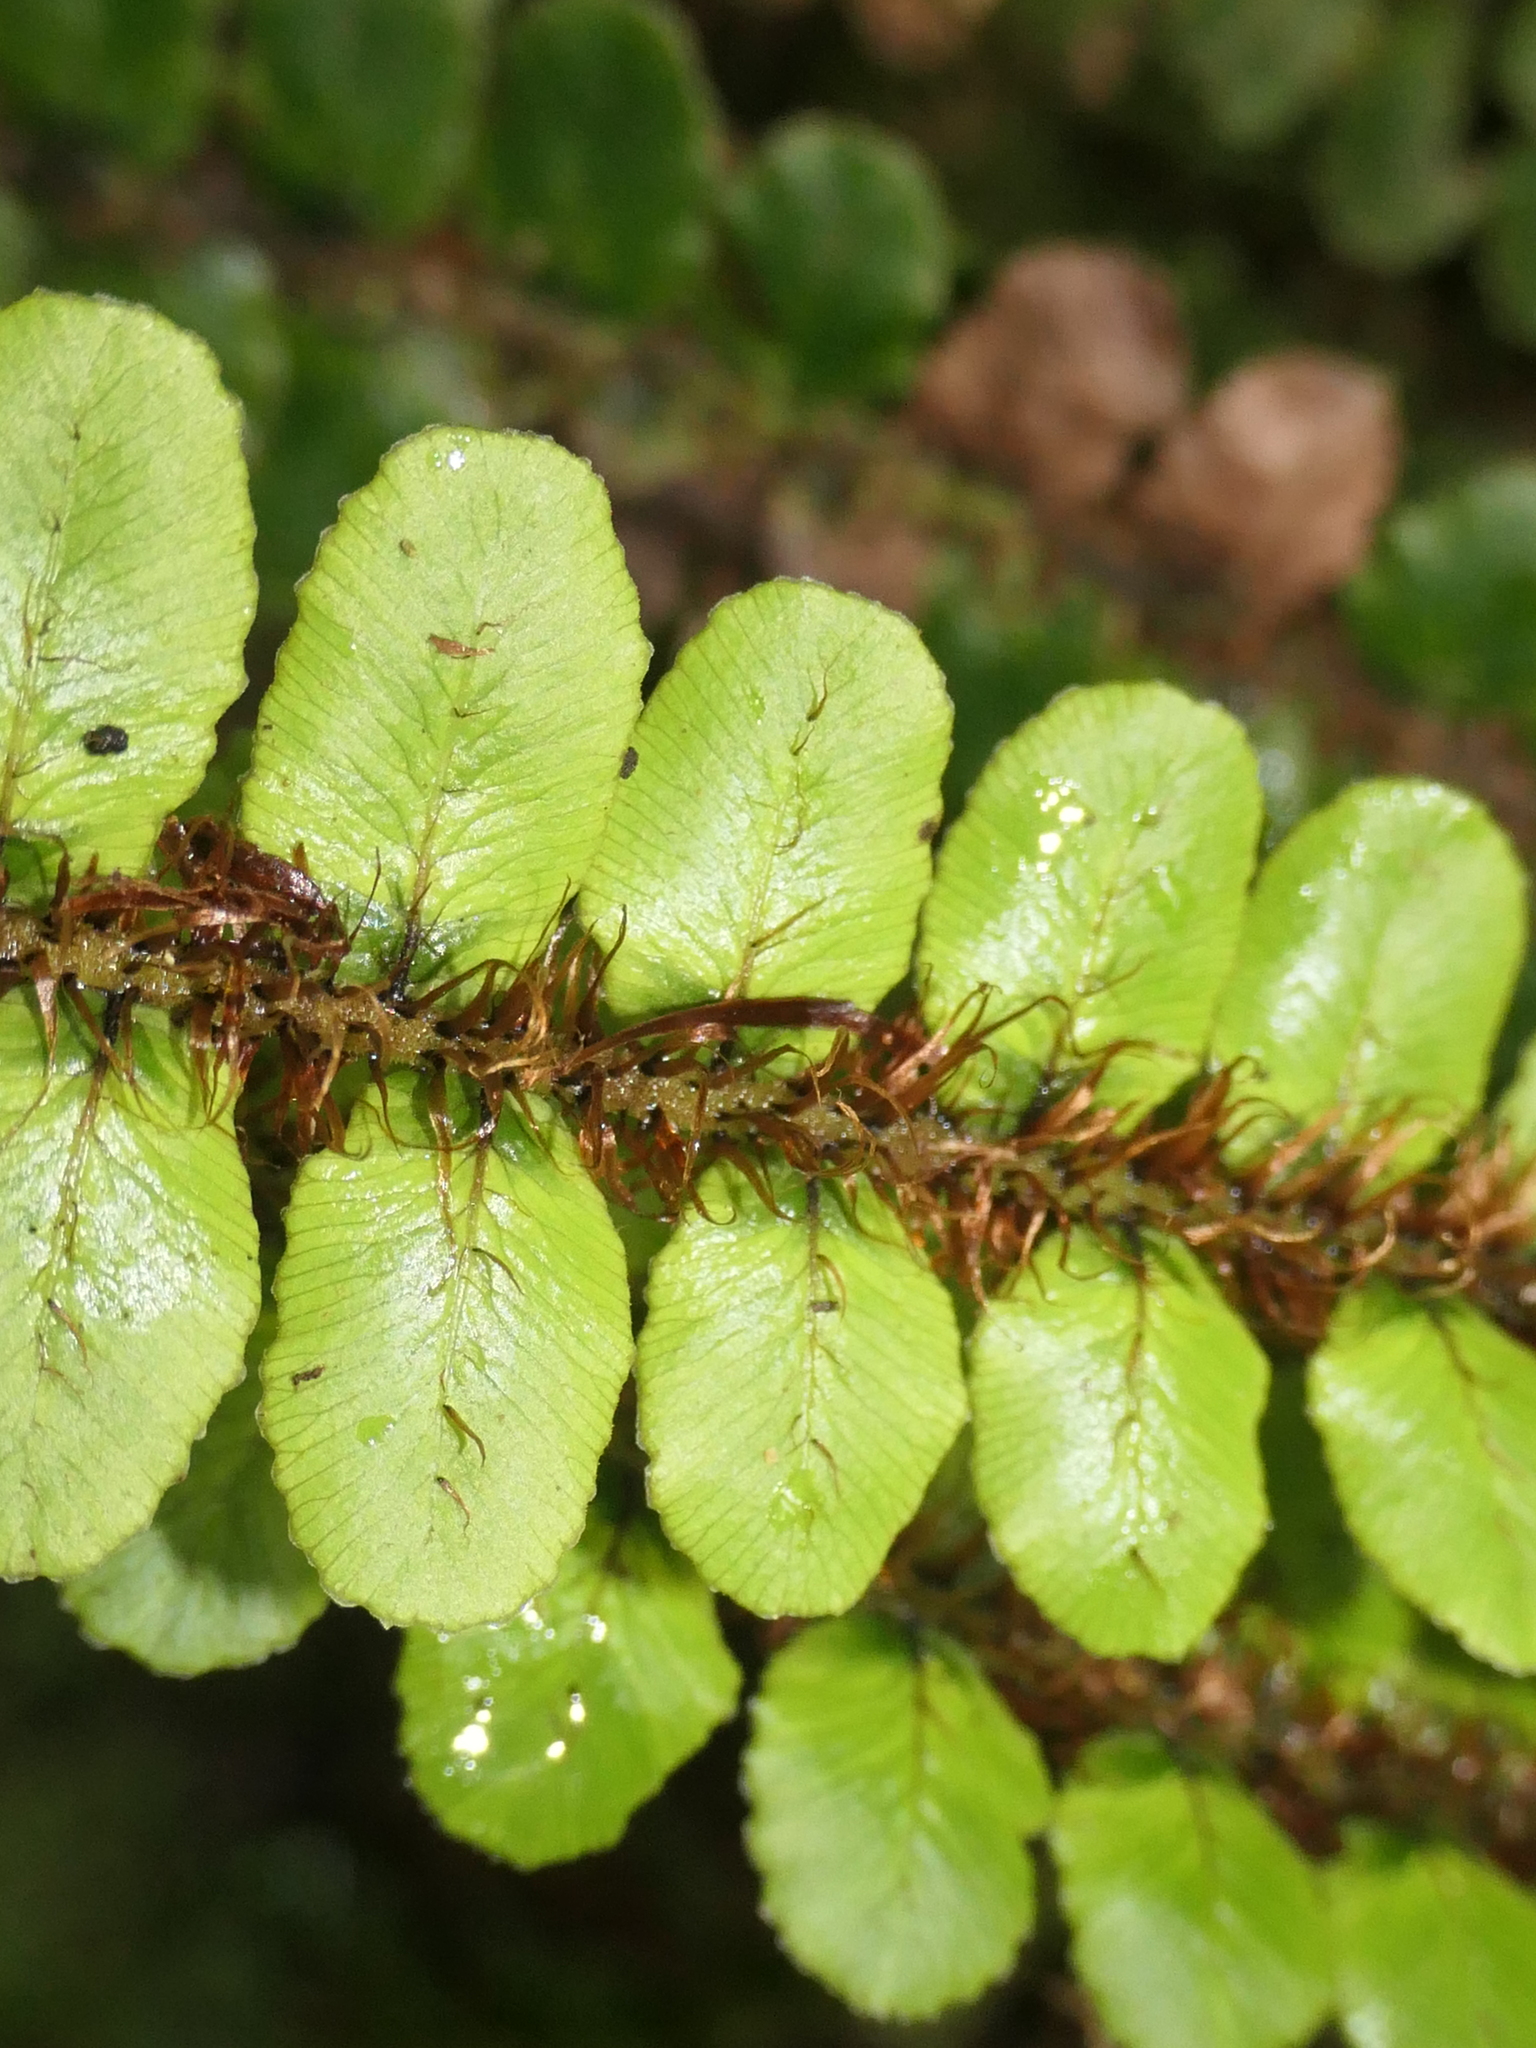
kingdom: Plantae
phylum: Tracheophyta
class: Polypodiopsida
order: Polypodiales
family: Blechnaceae
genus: Cranfillia
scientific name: Cranfillia fluviatilis
